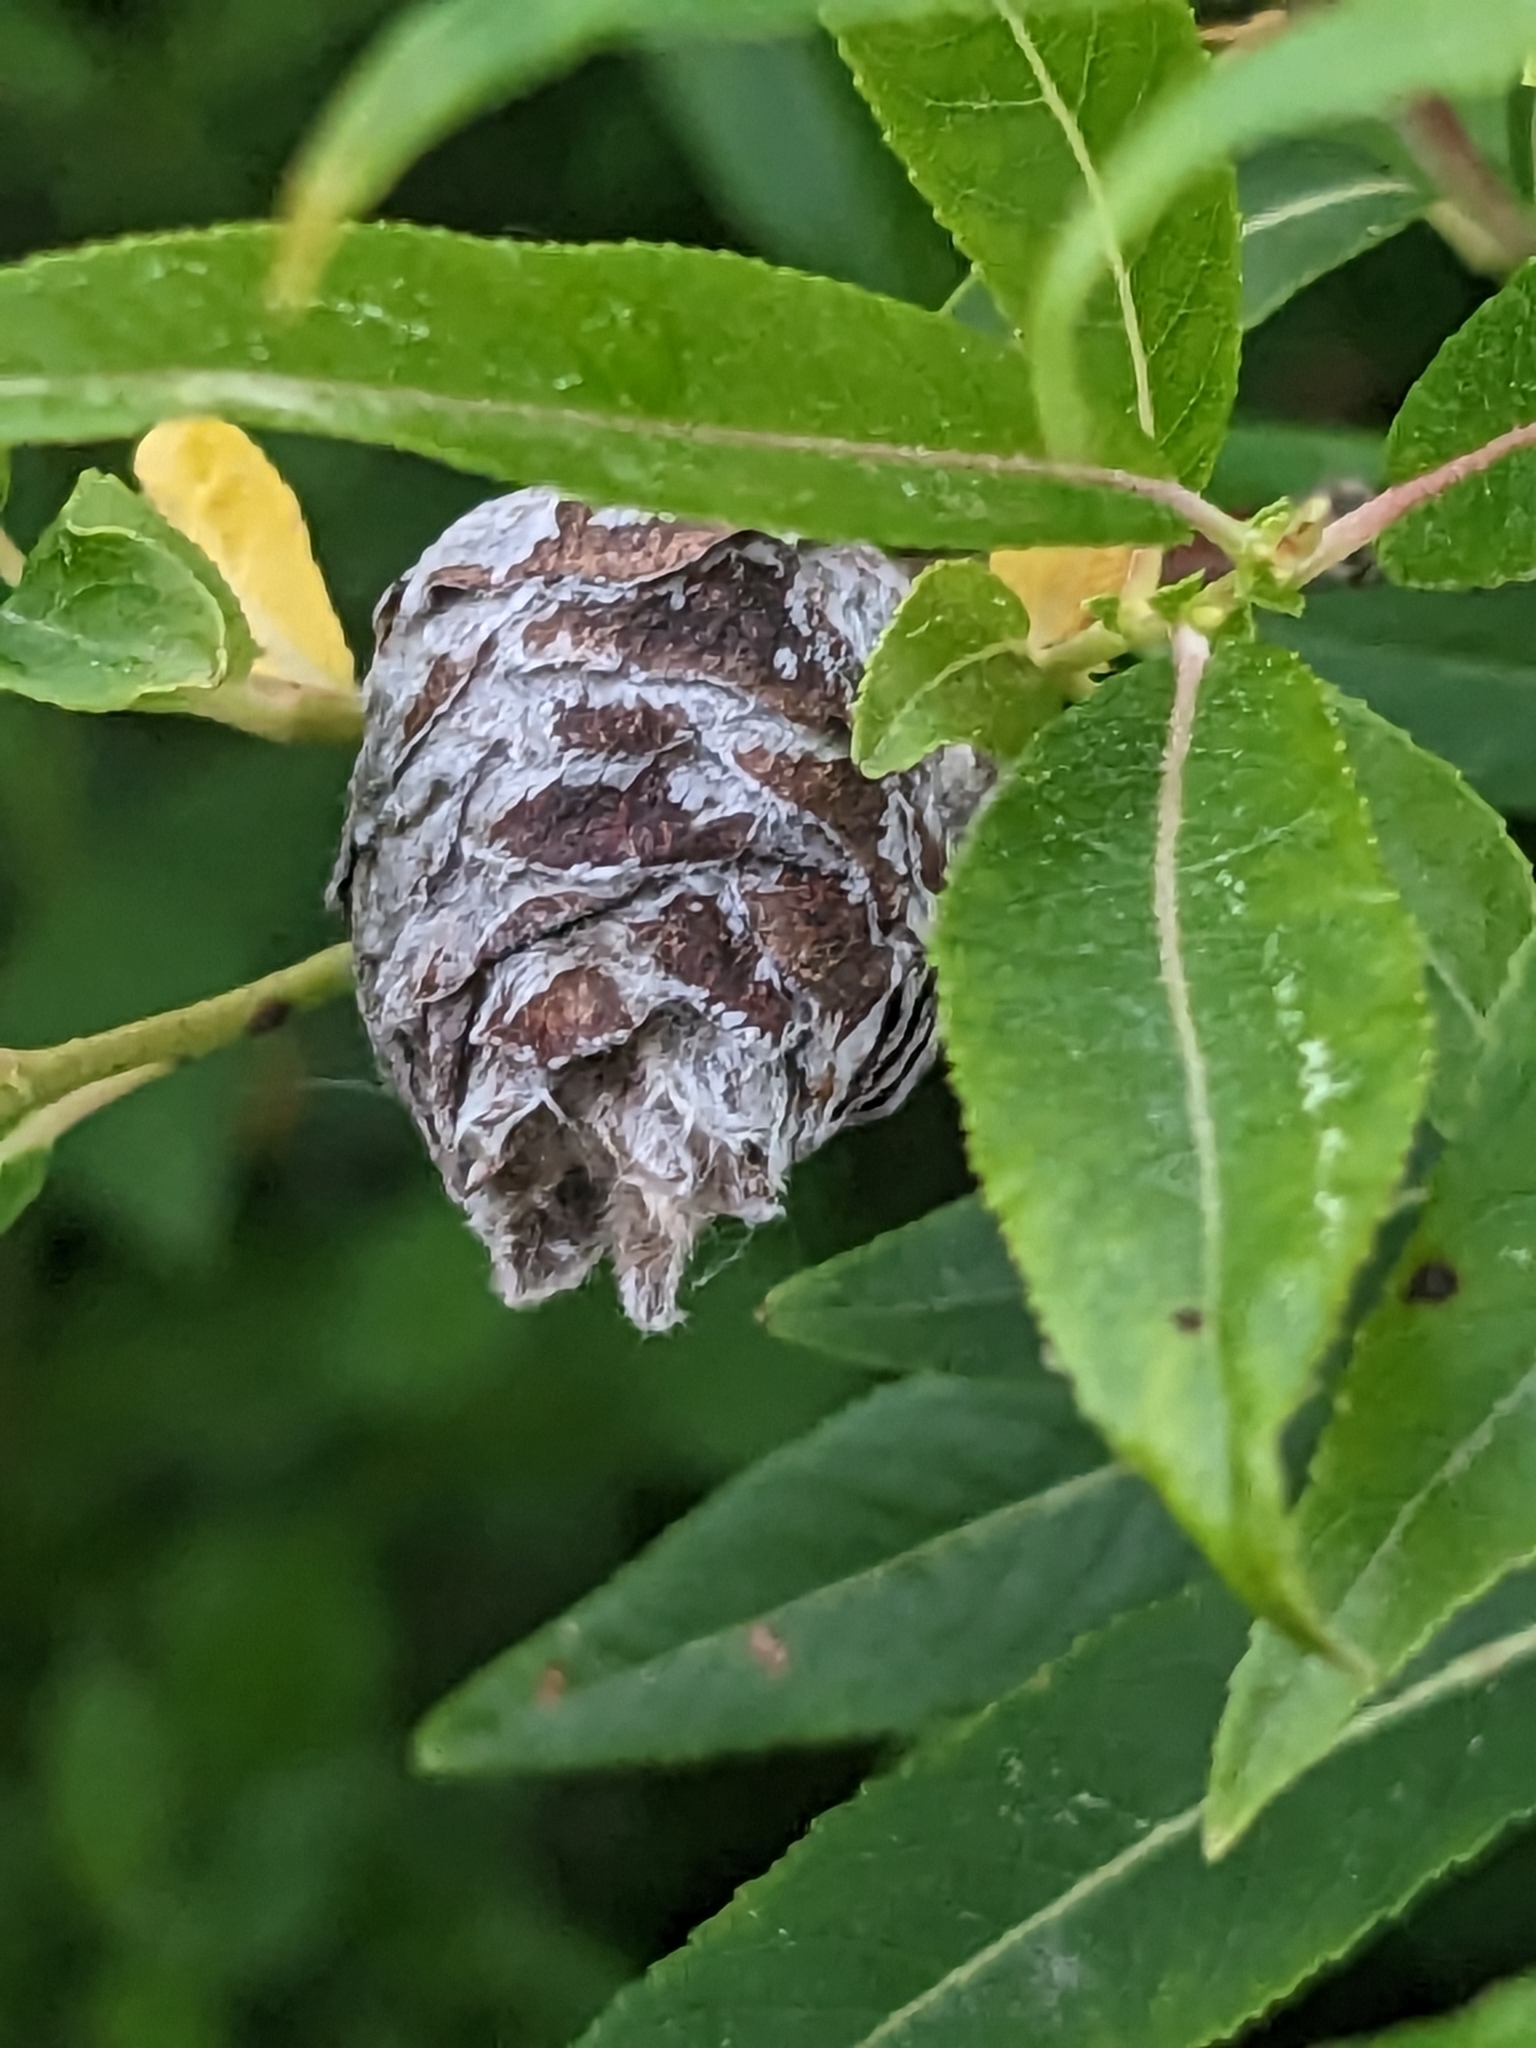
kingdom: Animalia
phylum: Arthropoda
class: Insecta
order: Diptera
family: Cecidomyiidae
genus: Rabdophaga
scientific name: Rabdophaga strobiloides
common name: Willow pinecone gall midge
